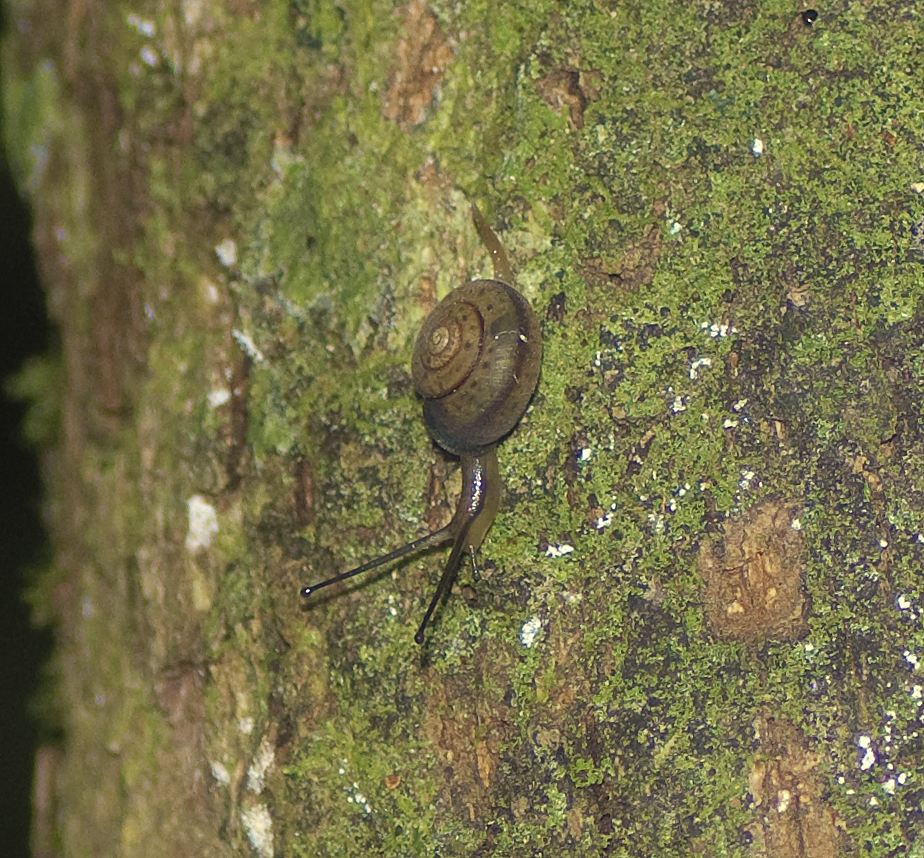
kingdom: Animalia
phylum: Mollusca
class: Gastropoda
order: Stylommatophora
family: Camaenidae
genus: Protolinitis
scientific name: Protolinitis pusilla
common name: Tinaroo red-striped snail
